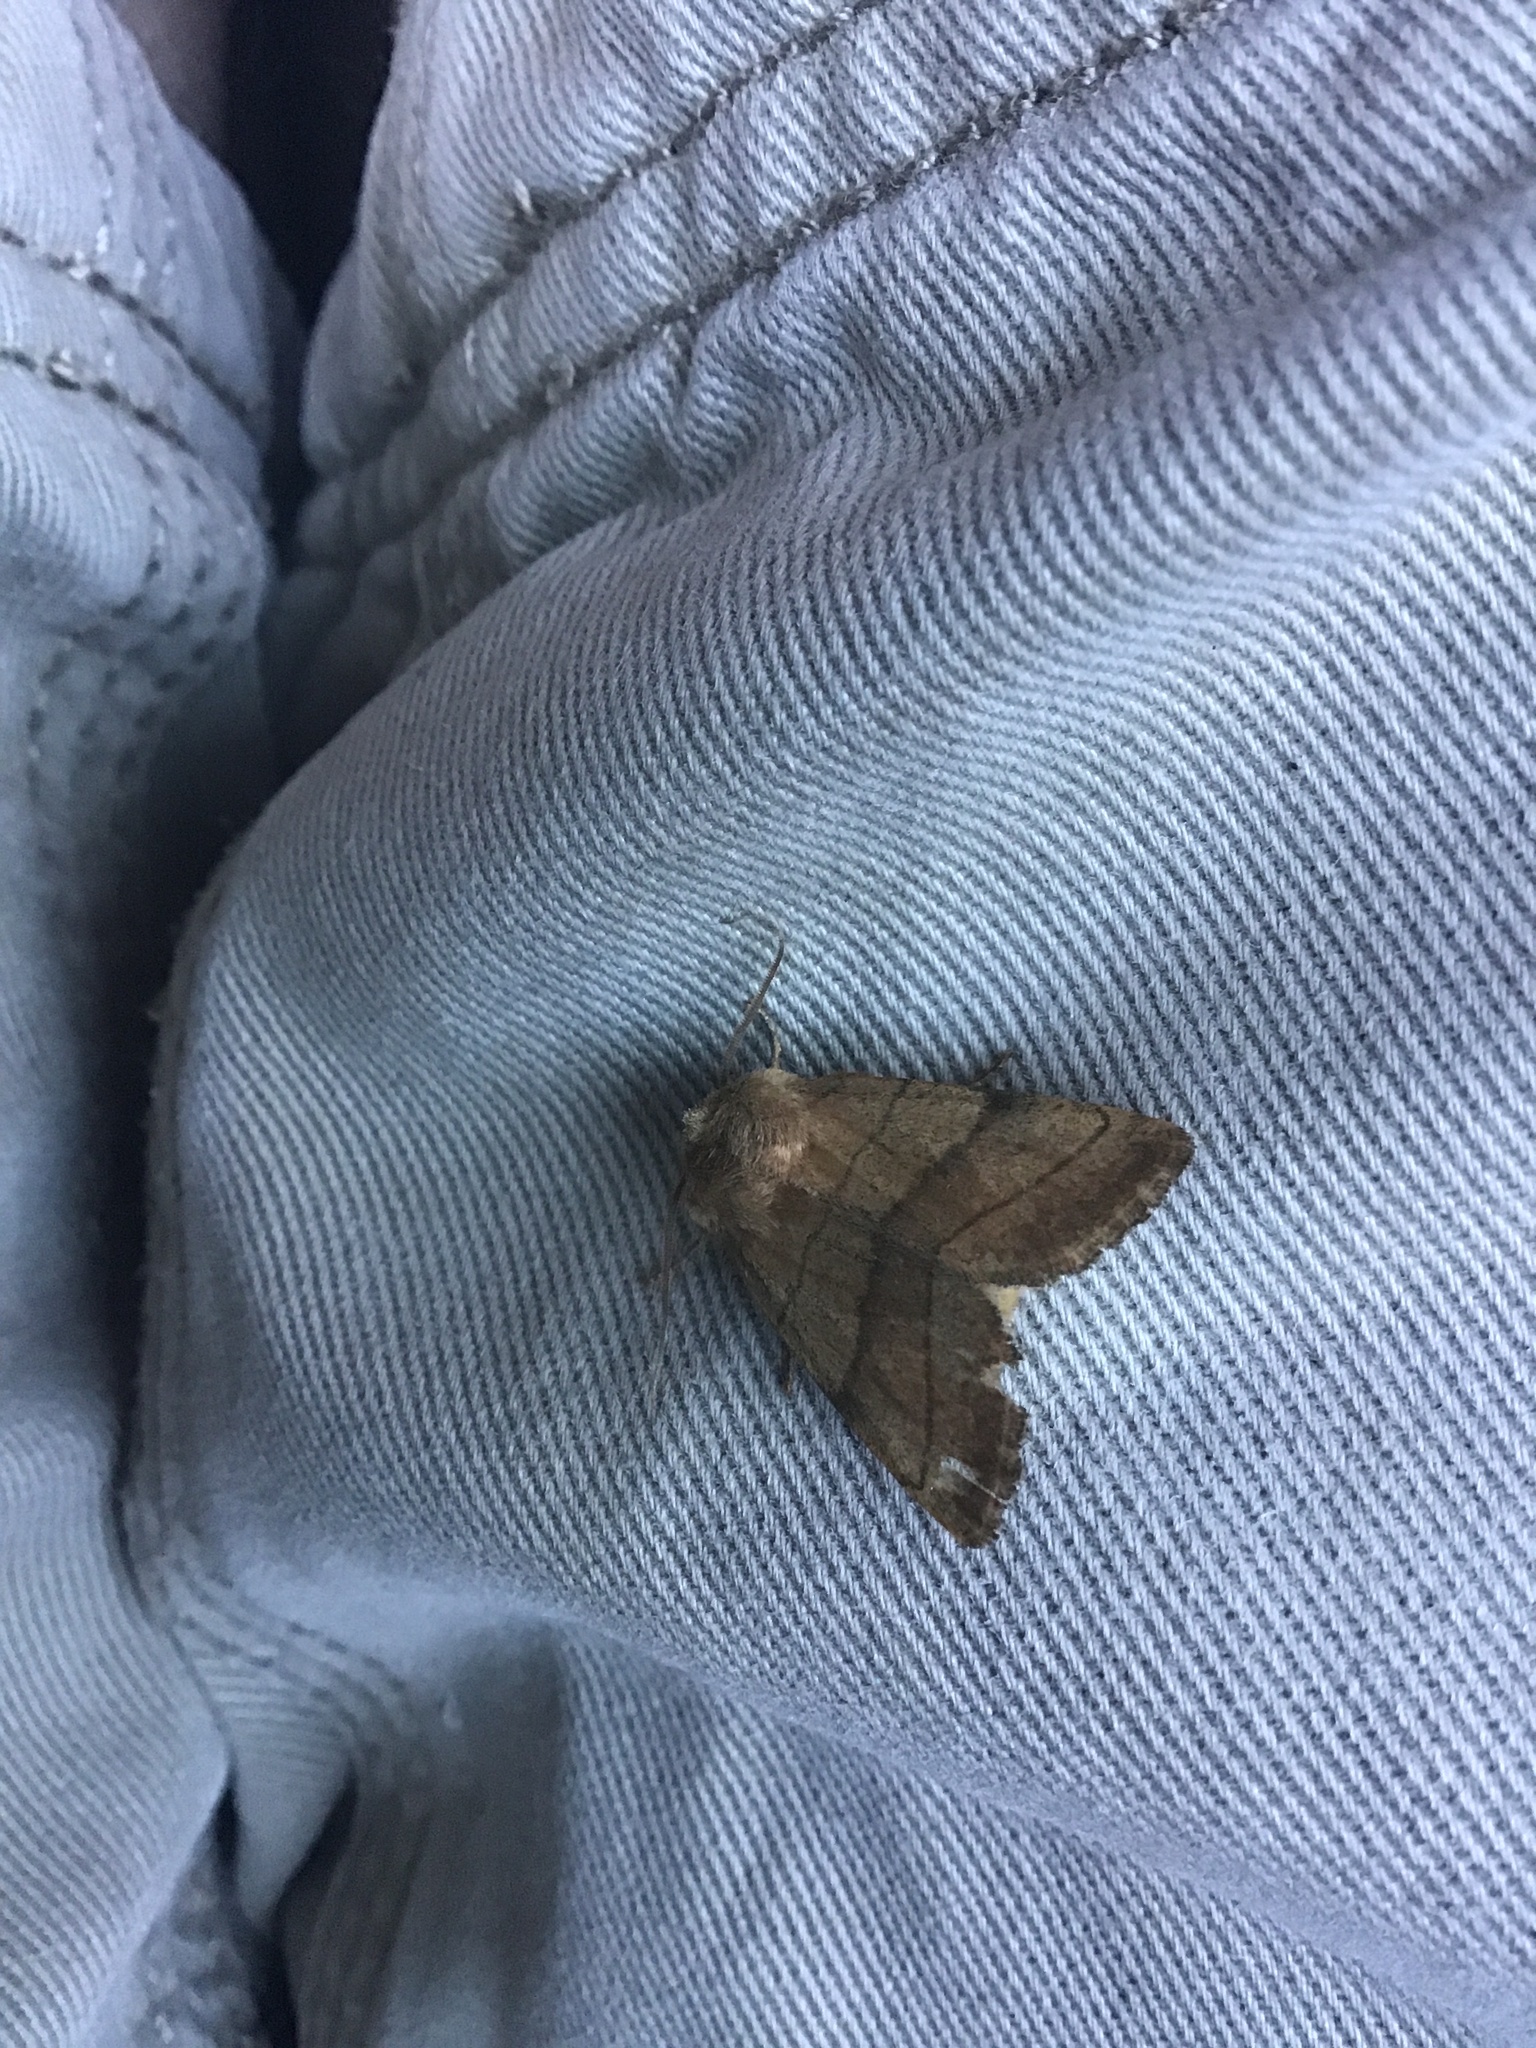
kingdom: Animalia
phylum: Arthropoda
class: Insecta
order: Lepidoptera
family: Noctuidae
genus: Charanyca
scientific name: Charanyca trigrammica
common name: Treble lines
